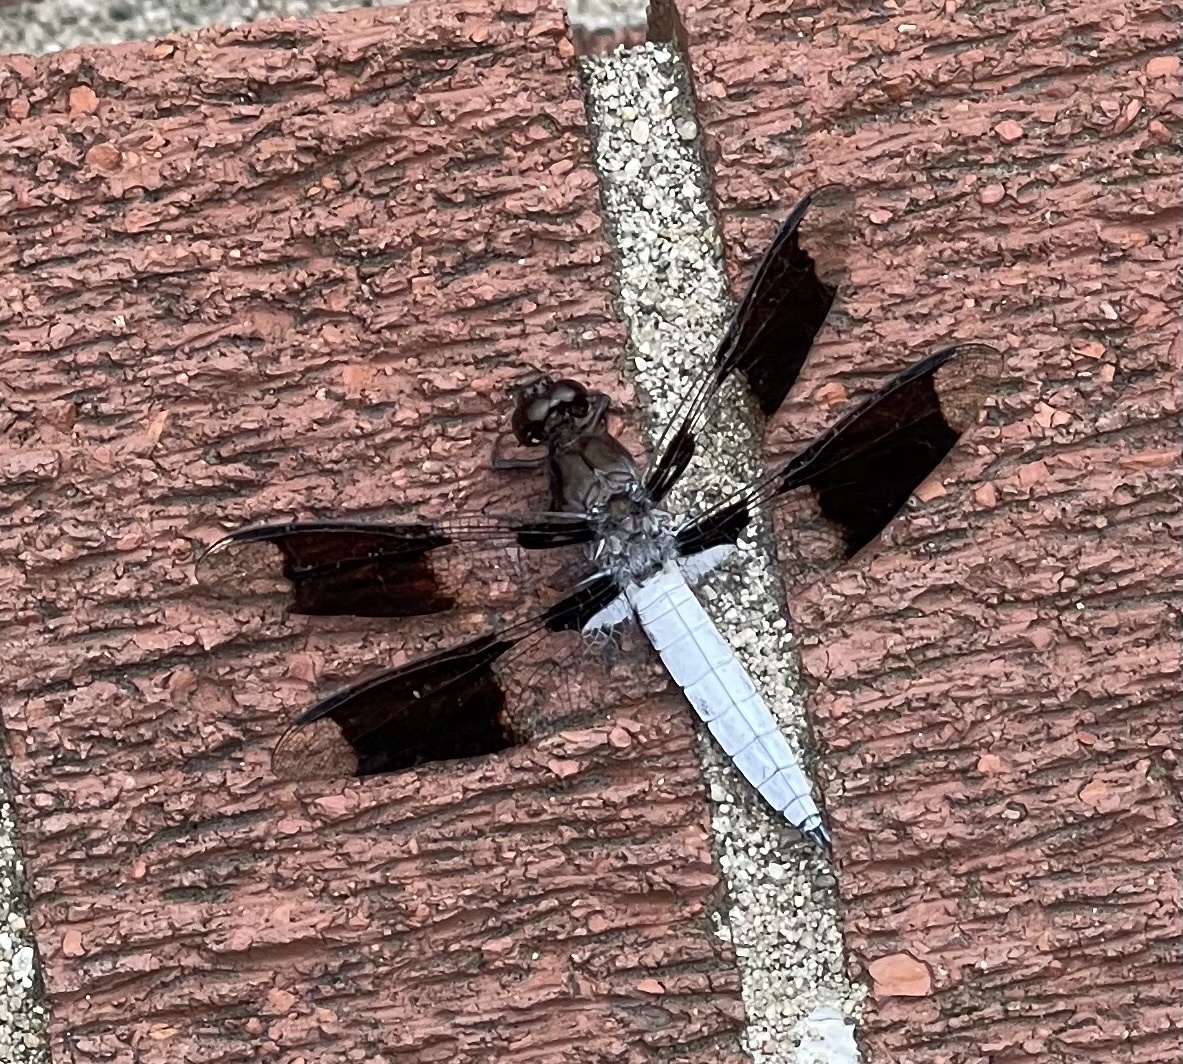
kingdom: Animalia
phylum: Arthropoda
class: Insecta
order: Odonata
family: Libellulidae
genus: Plathemis
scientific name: Plathemis lydia
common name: Common whitetail
